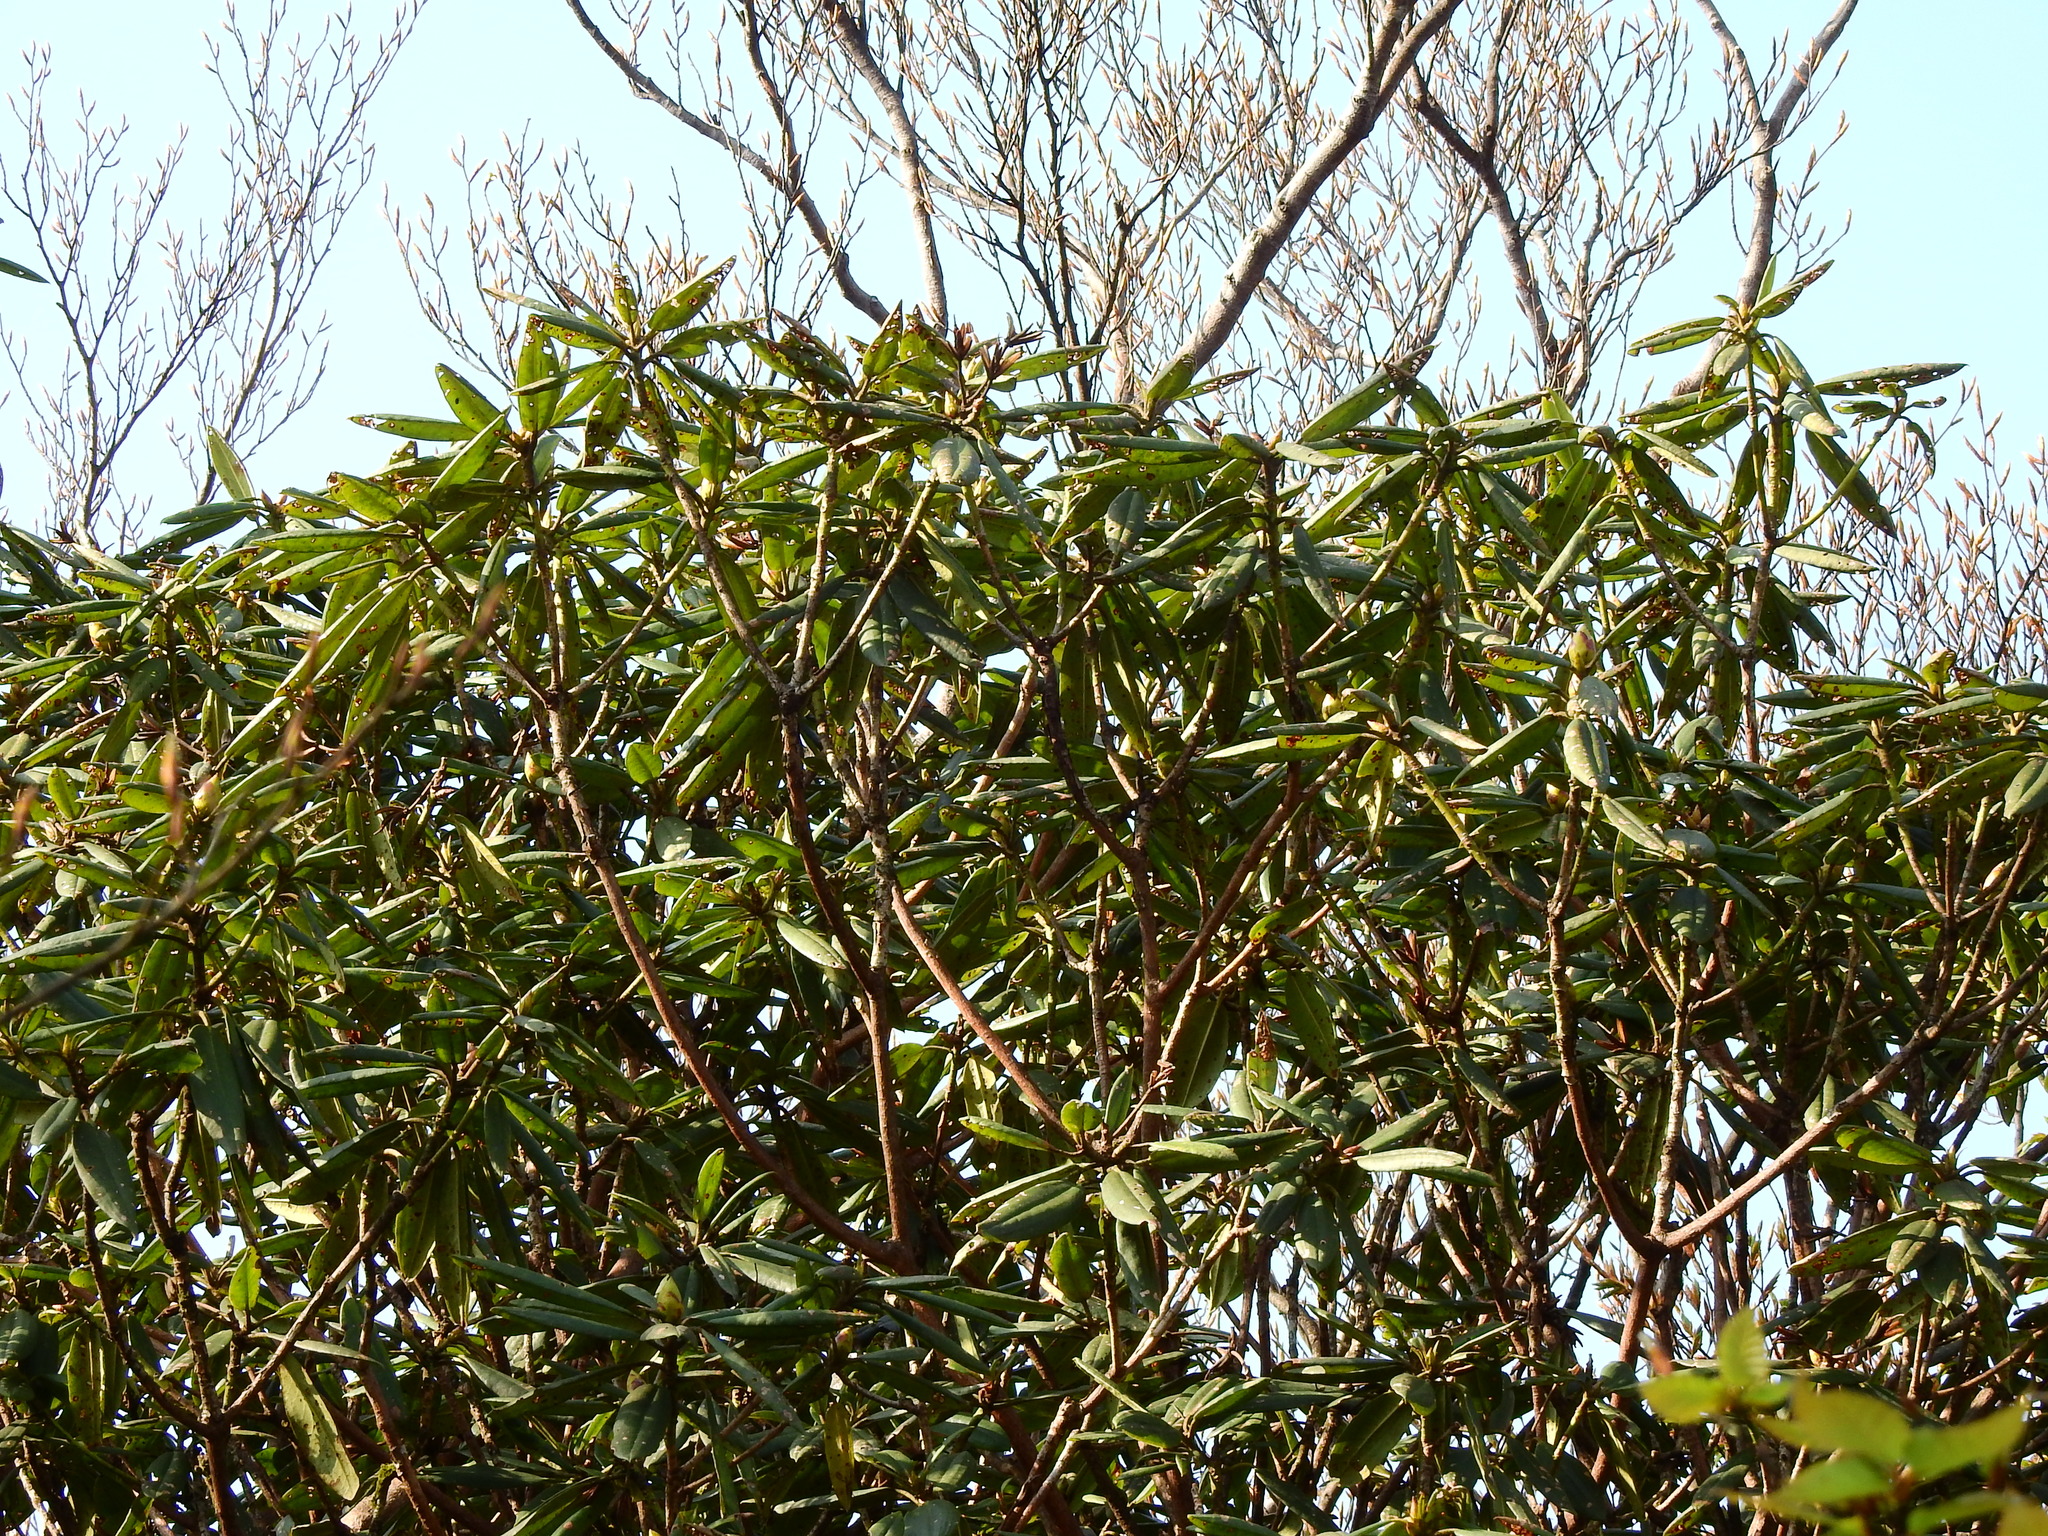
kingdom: Plantae
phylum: Tracheophyta
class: Magnoliopsida
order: Ericales
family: Ericaceae
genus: Rhododendron
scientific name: Rhododendron pseudochrysanthum
